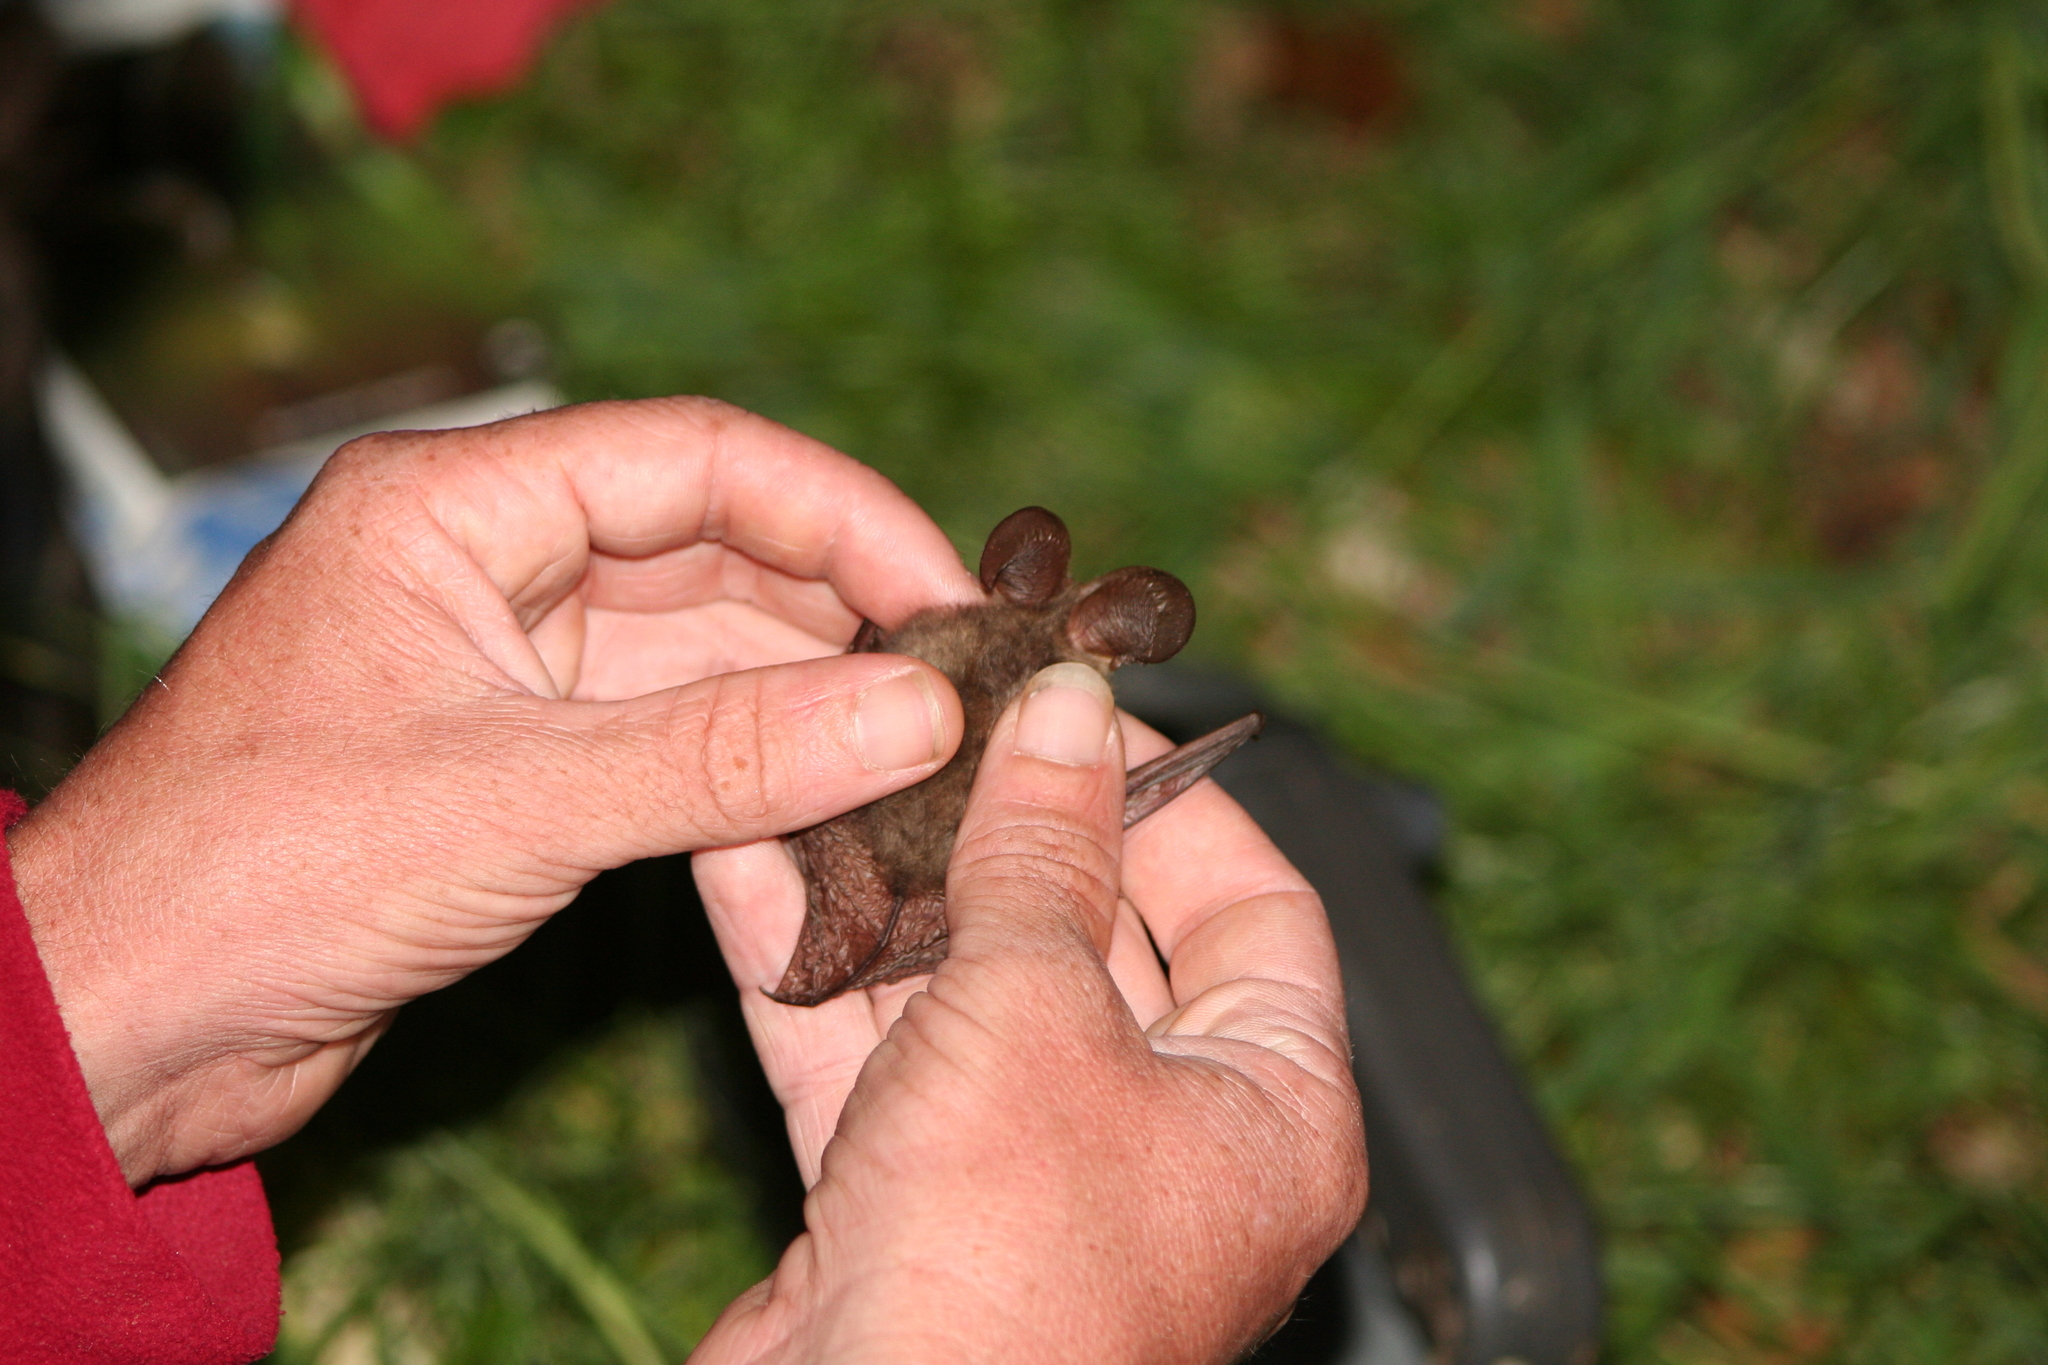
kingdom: Animalia
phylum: Chordata
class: Mammalia
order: Chiroptera
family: Vespertilionidae
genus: Plecotus
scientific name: Plecotus auritus
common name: Brown long-eared bat
